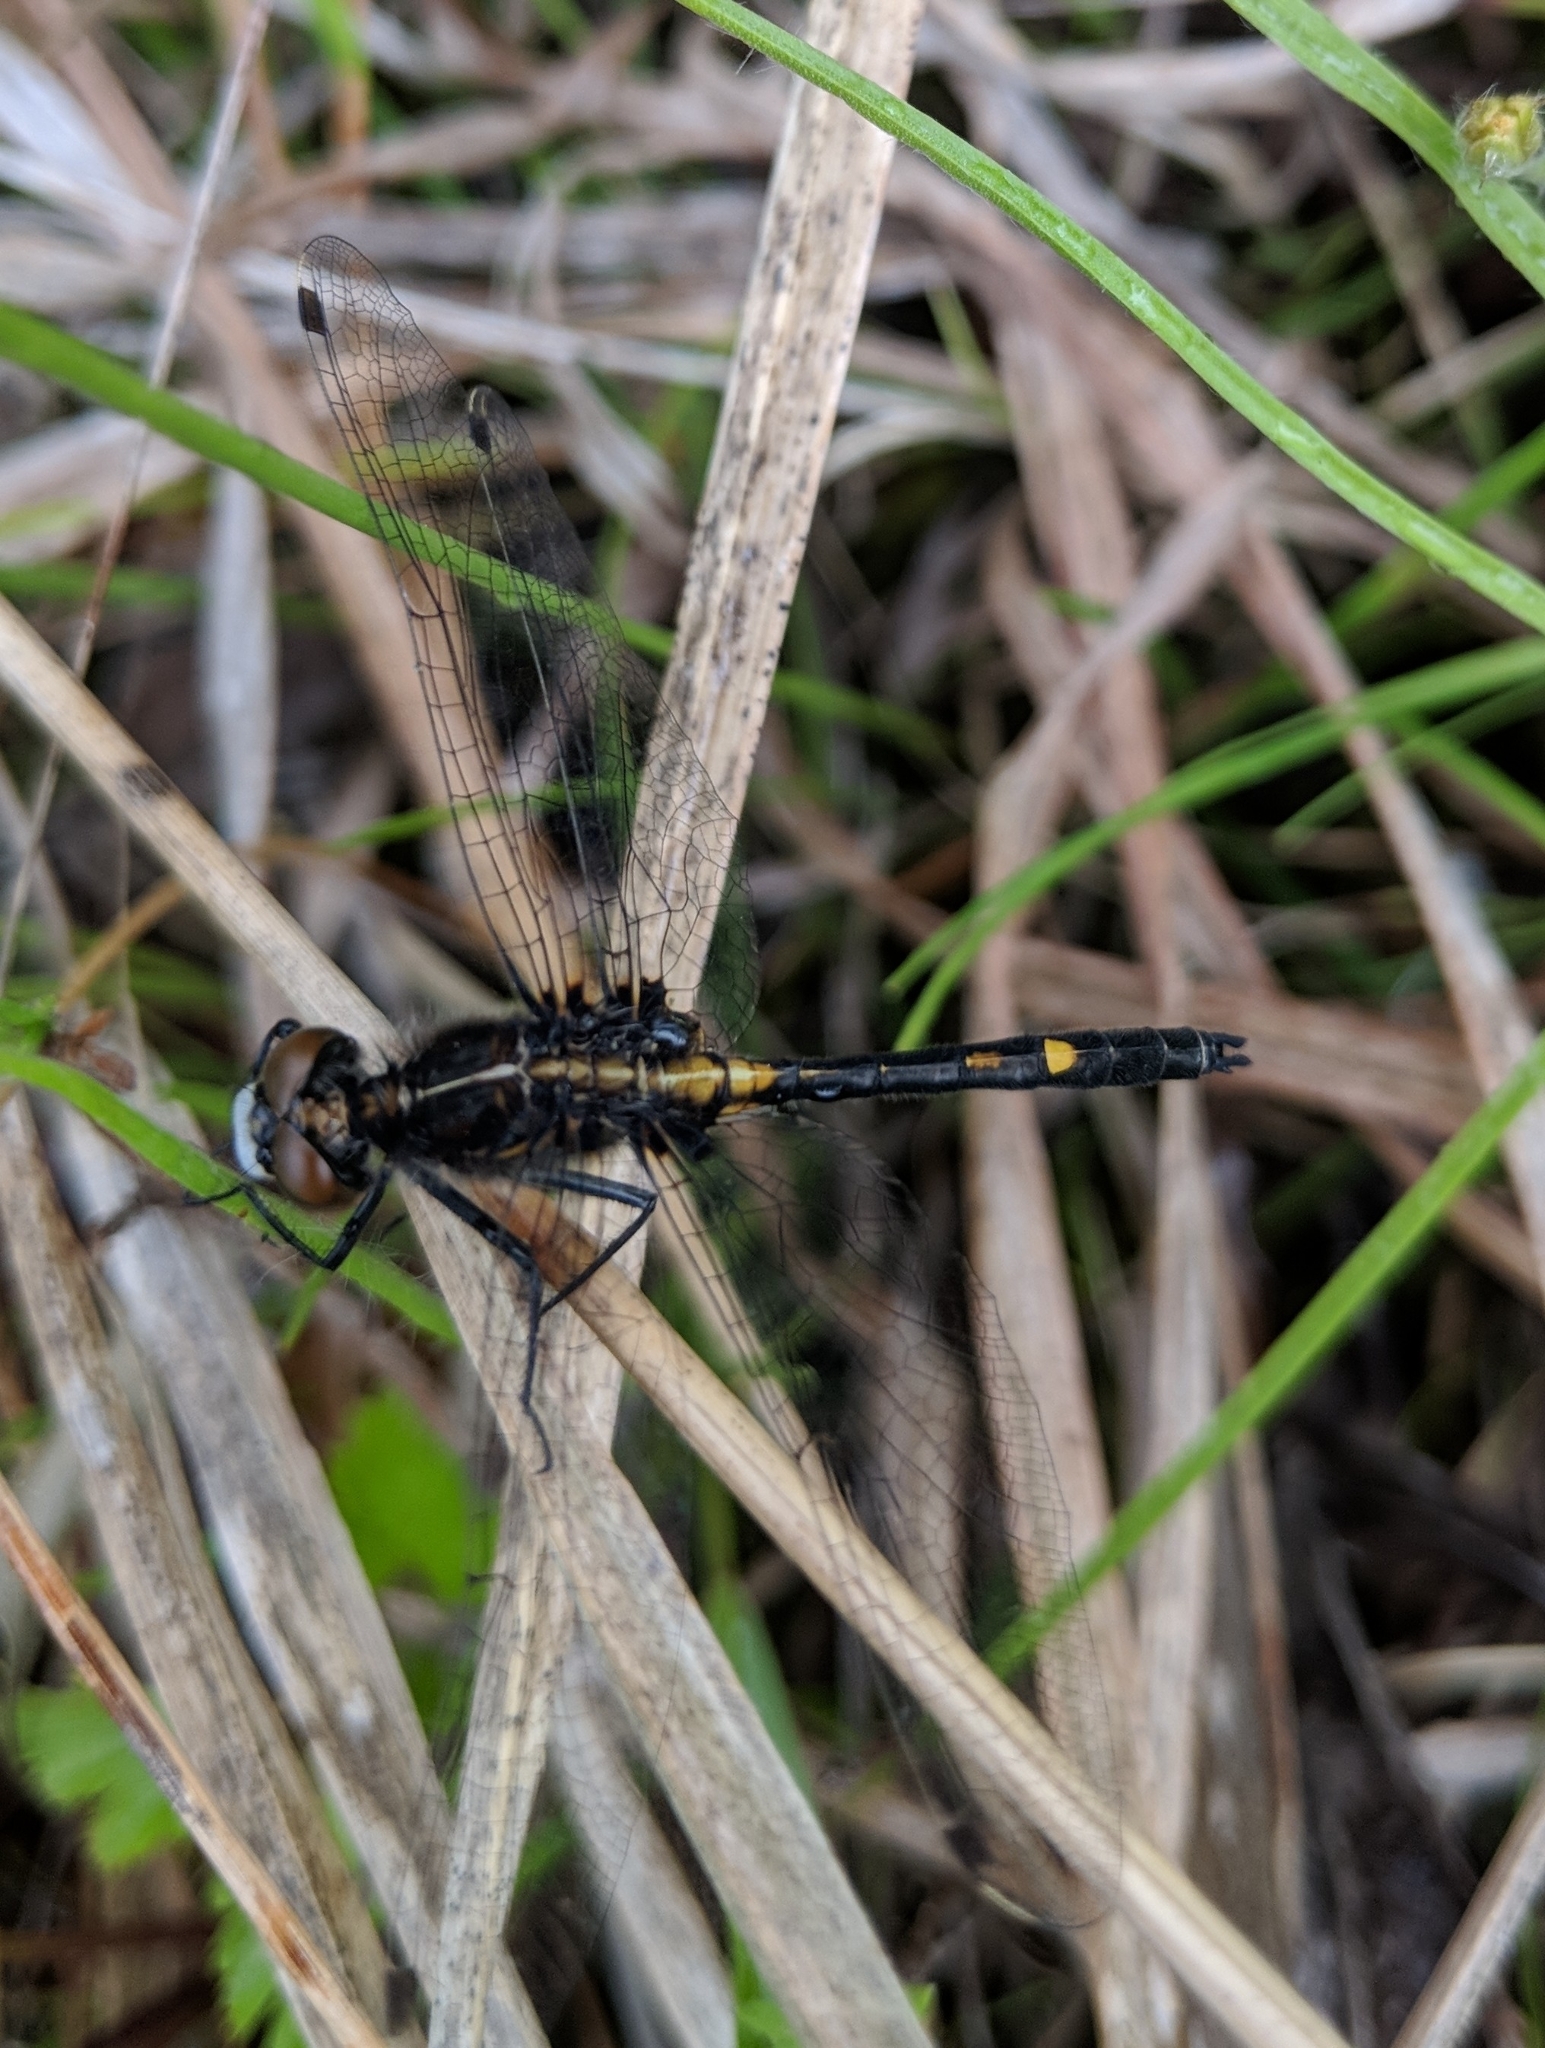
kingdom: Animalia
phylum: Arthropoda
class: Insecta
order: Odonata
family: Libellulidae
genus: Leucorrhinia
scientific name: Leucorrhinia intacta
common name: Dot-tailed whiteface
